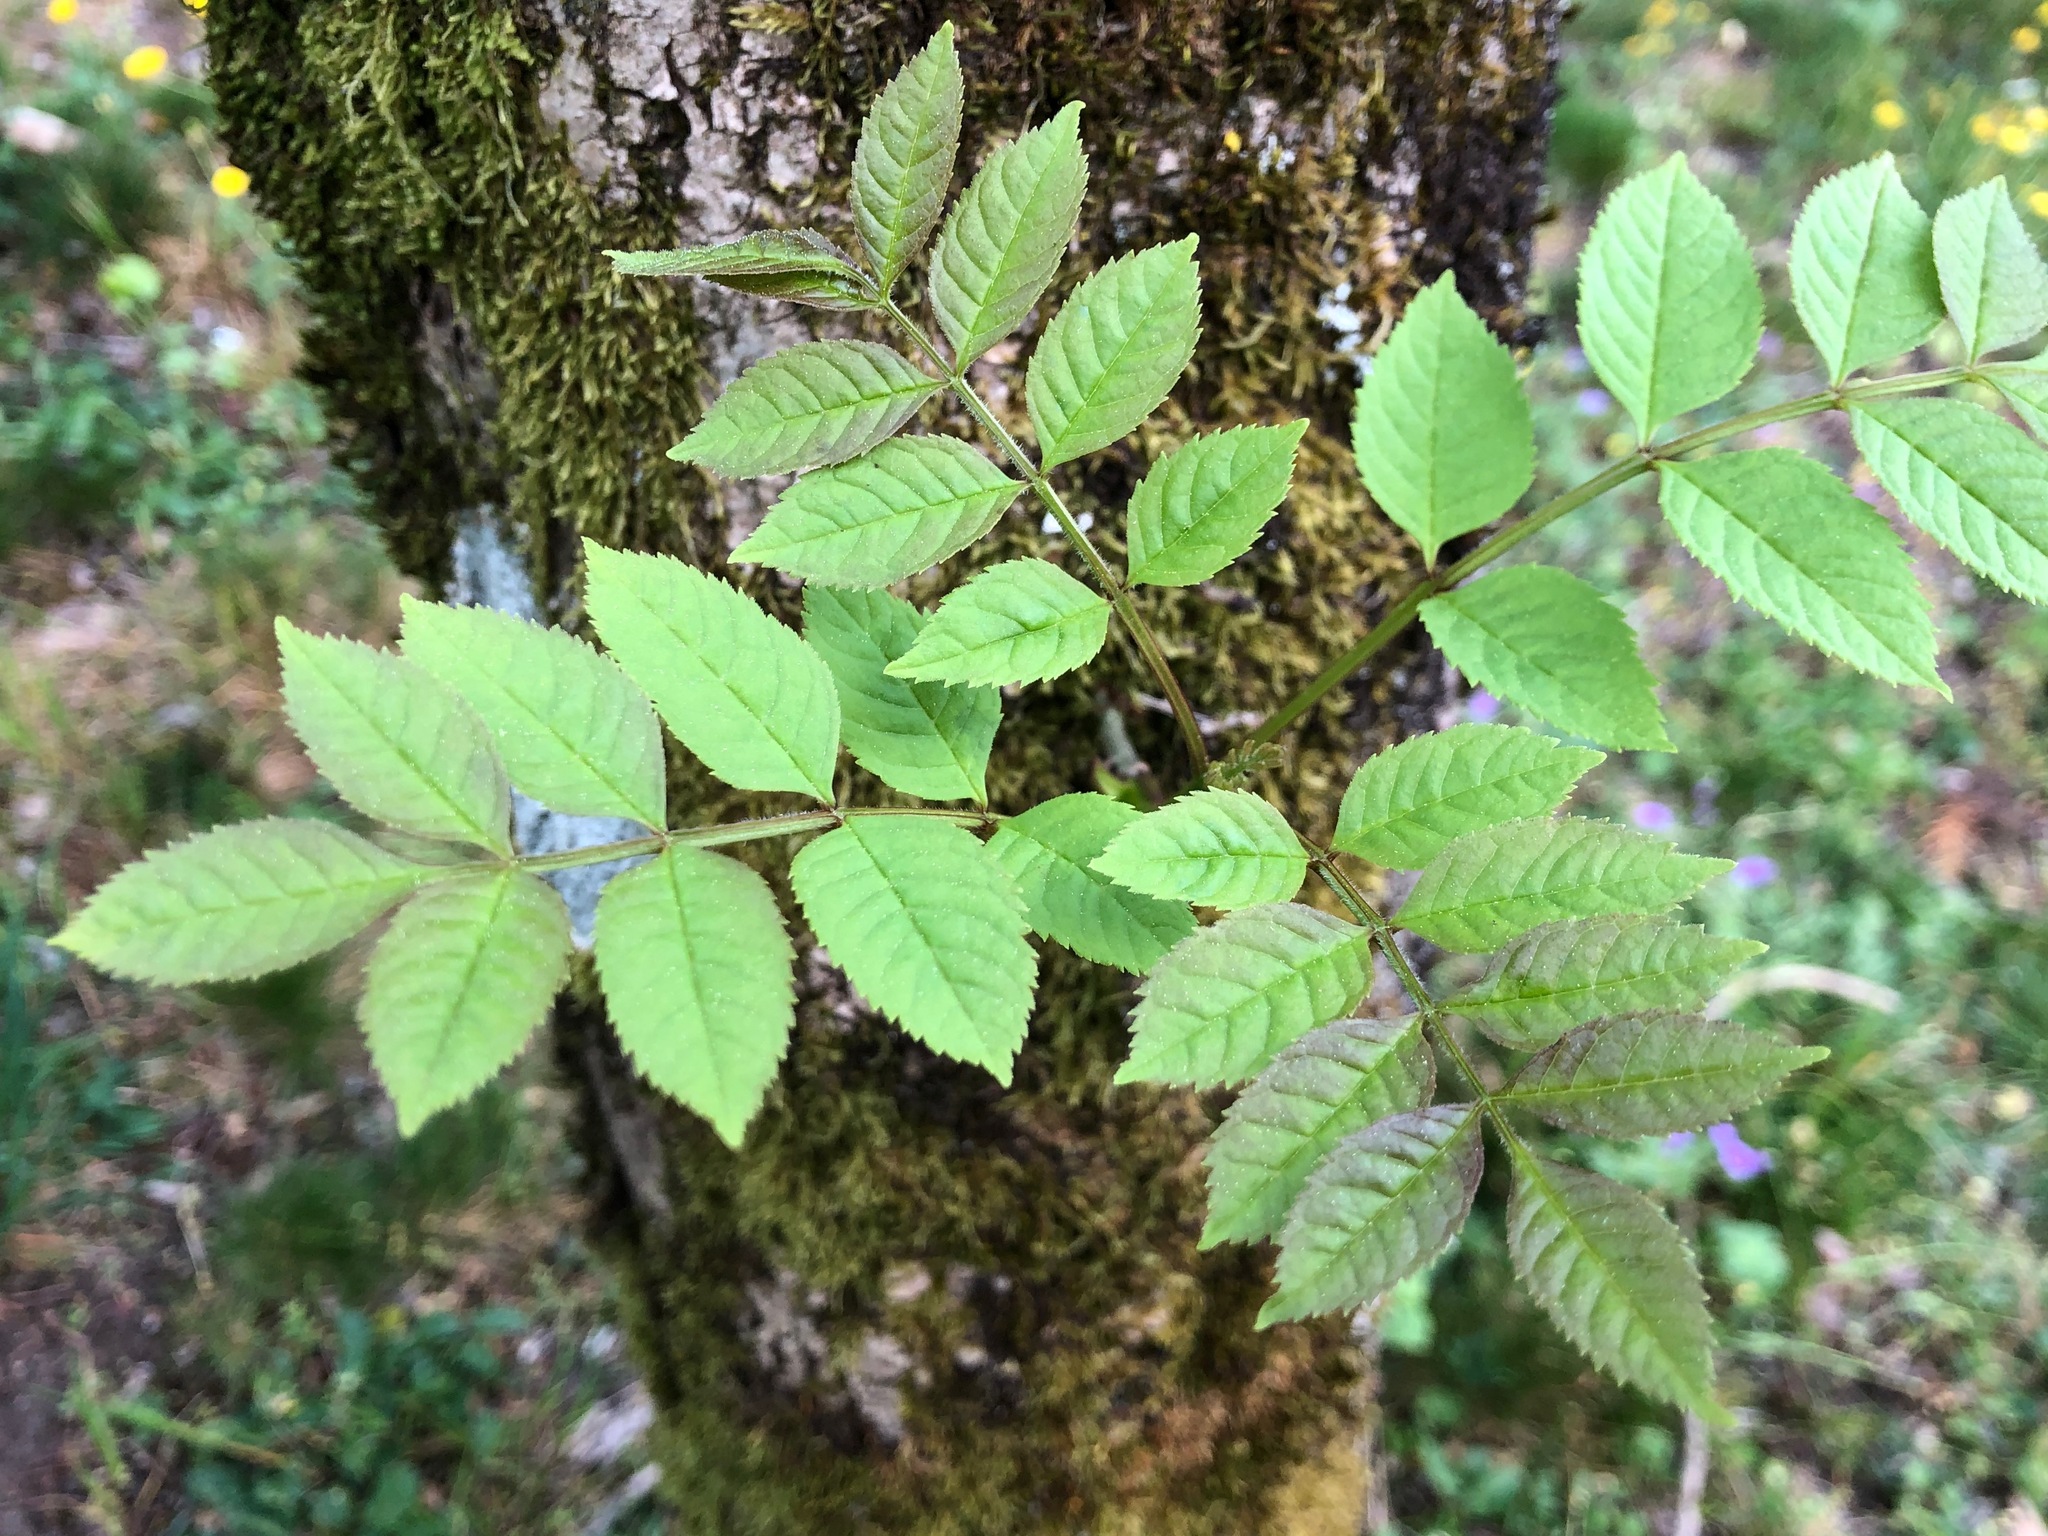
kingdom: Plantae
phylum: Tracheophyta
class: Magnoliopsida
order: Lamiales
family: Oleaceae
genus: Fraxinus
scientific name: Fraxinus excelsior
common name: European ash
